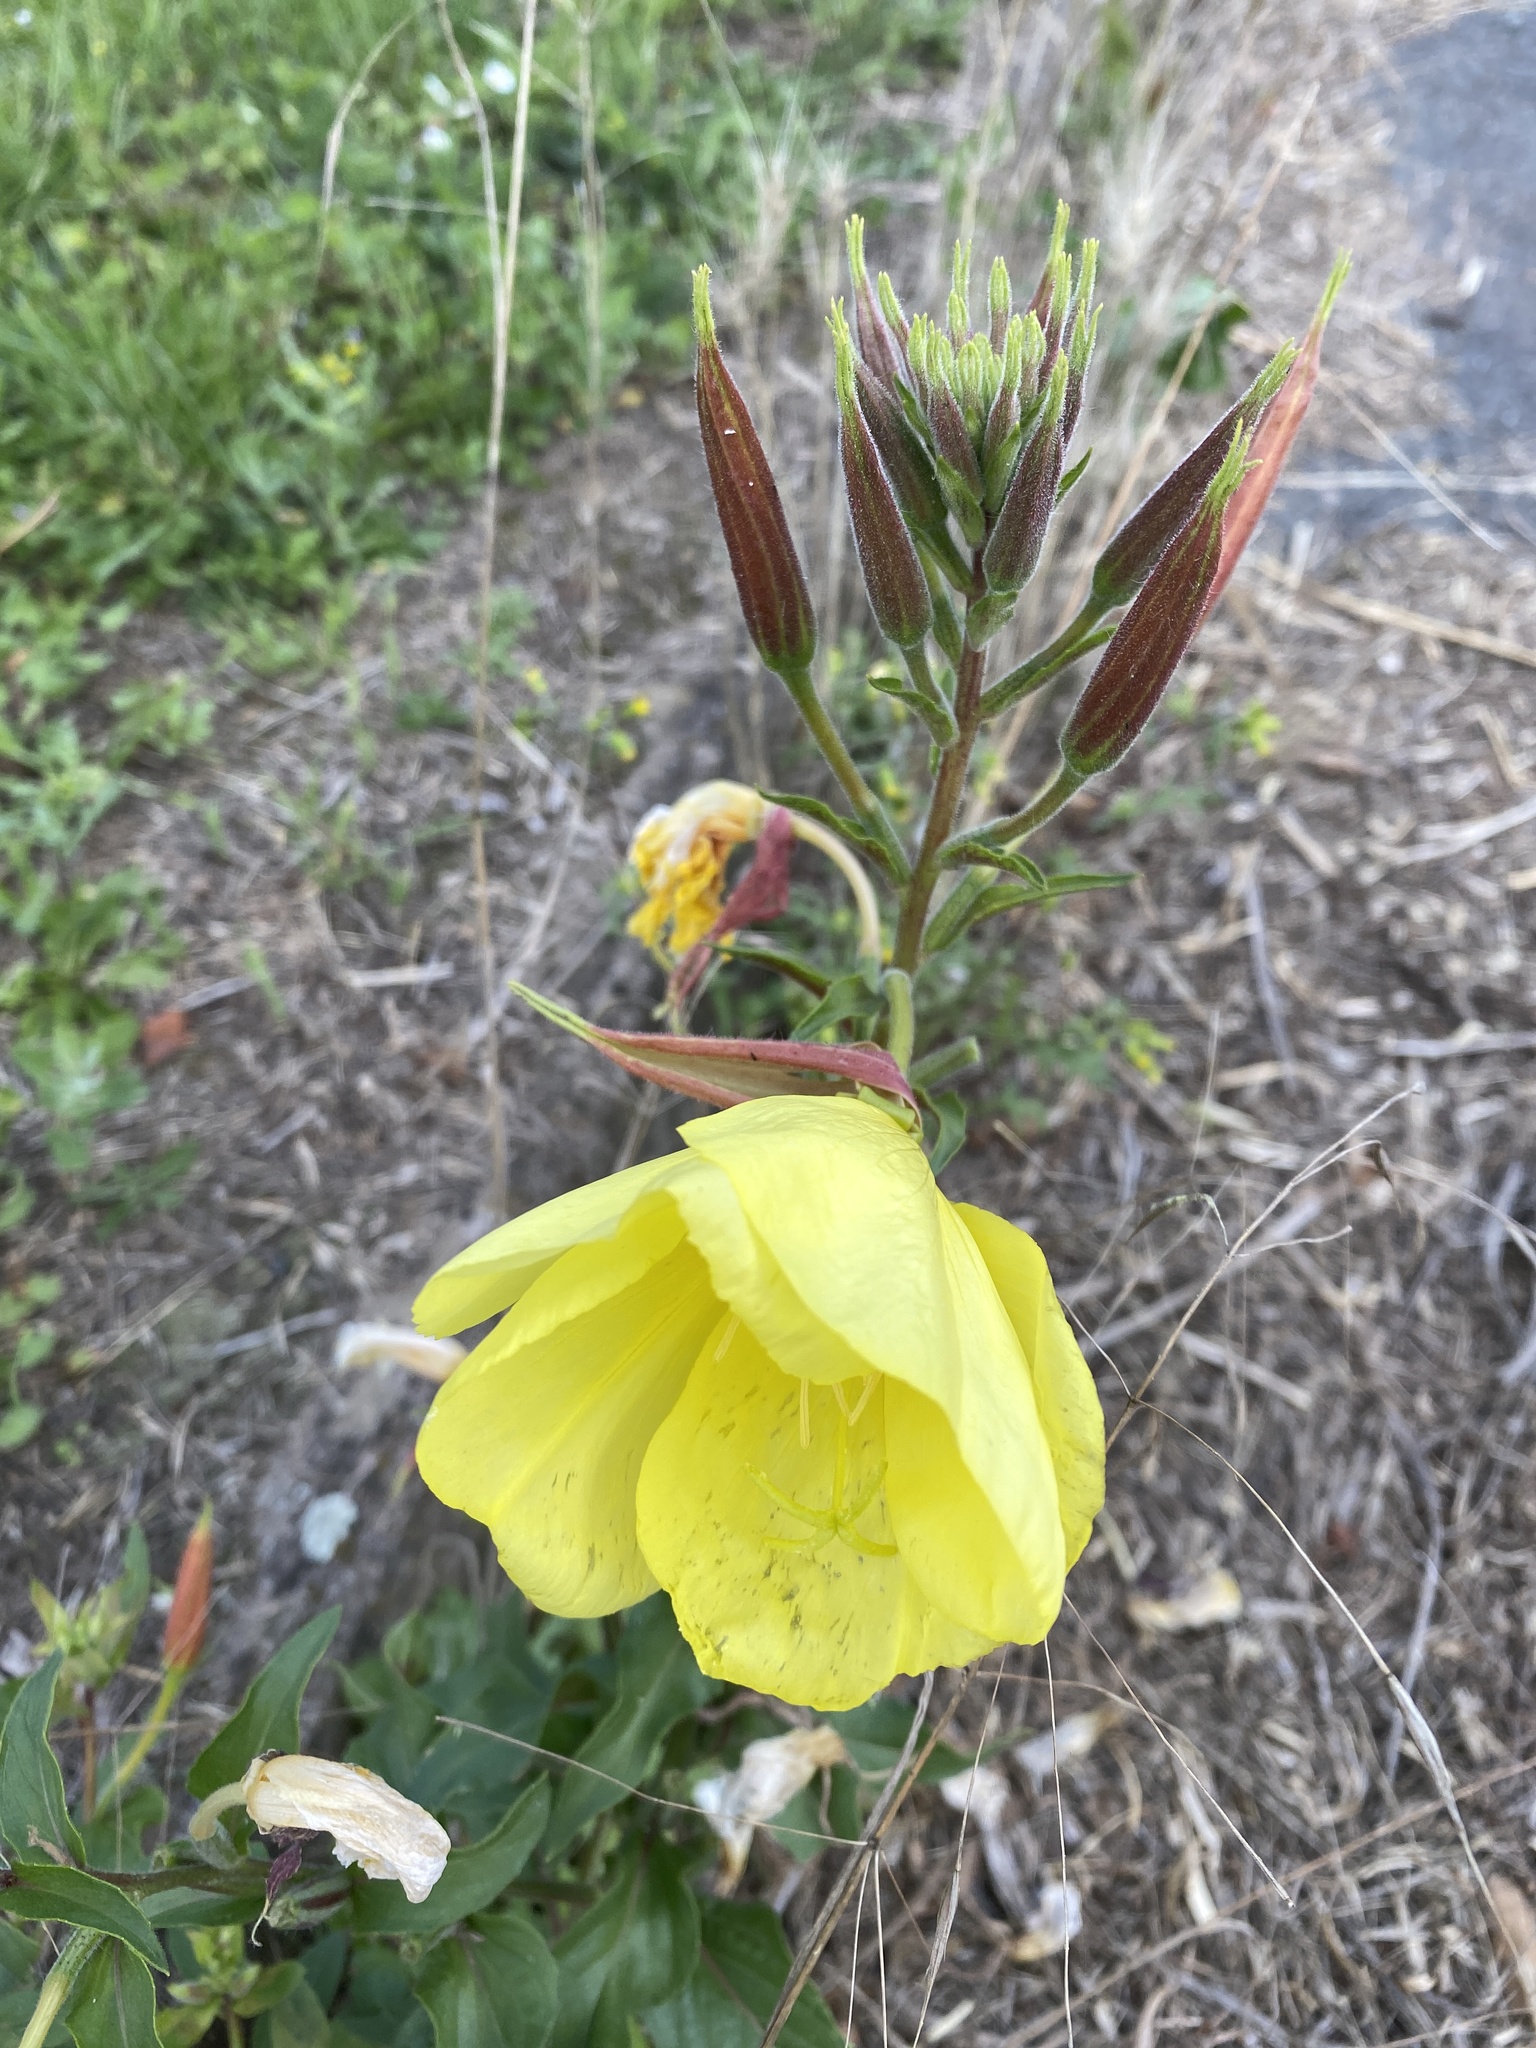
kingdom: Plantae
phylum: Tracheophyta
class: Magnoliopsida
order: Myrtales
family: Onagraceae
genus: Oenothera
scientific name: Oenothera glazioviana
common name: Large-flowered evening-primrose
